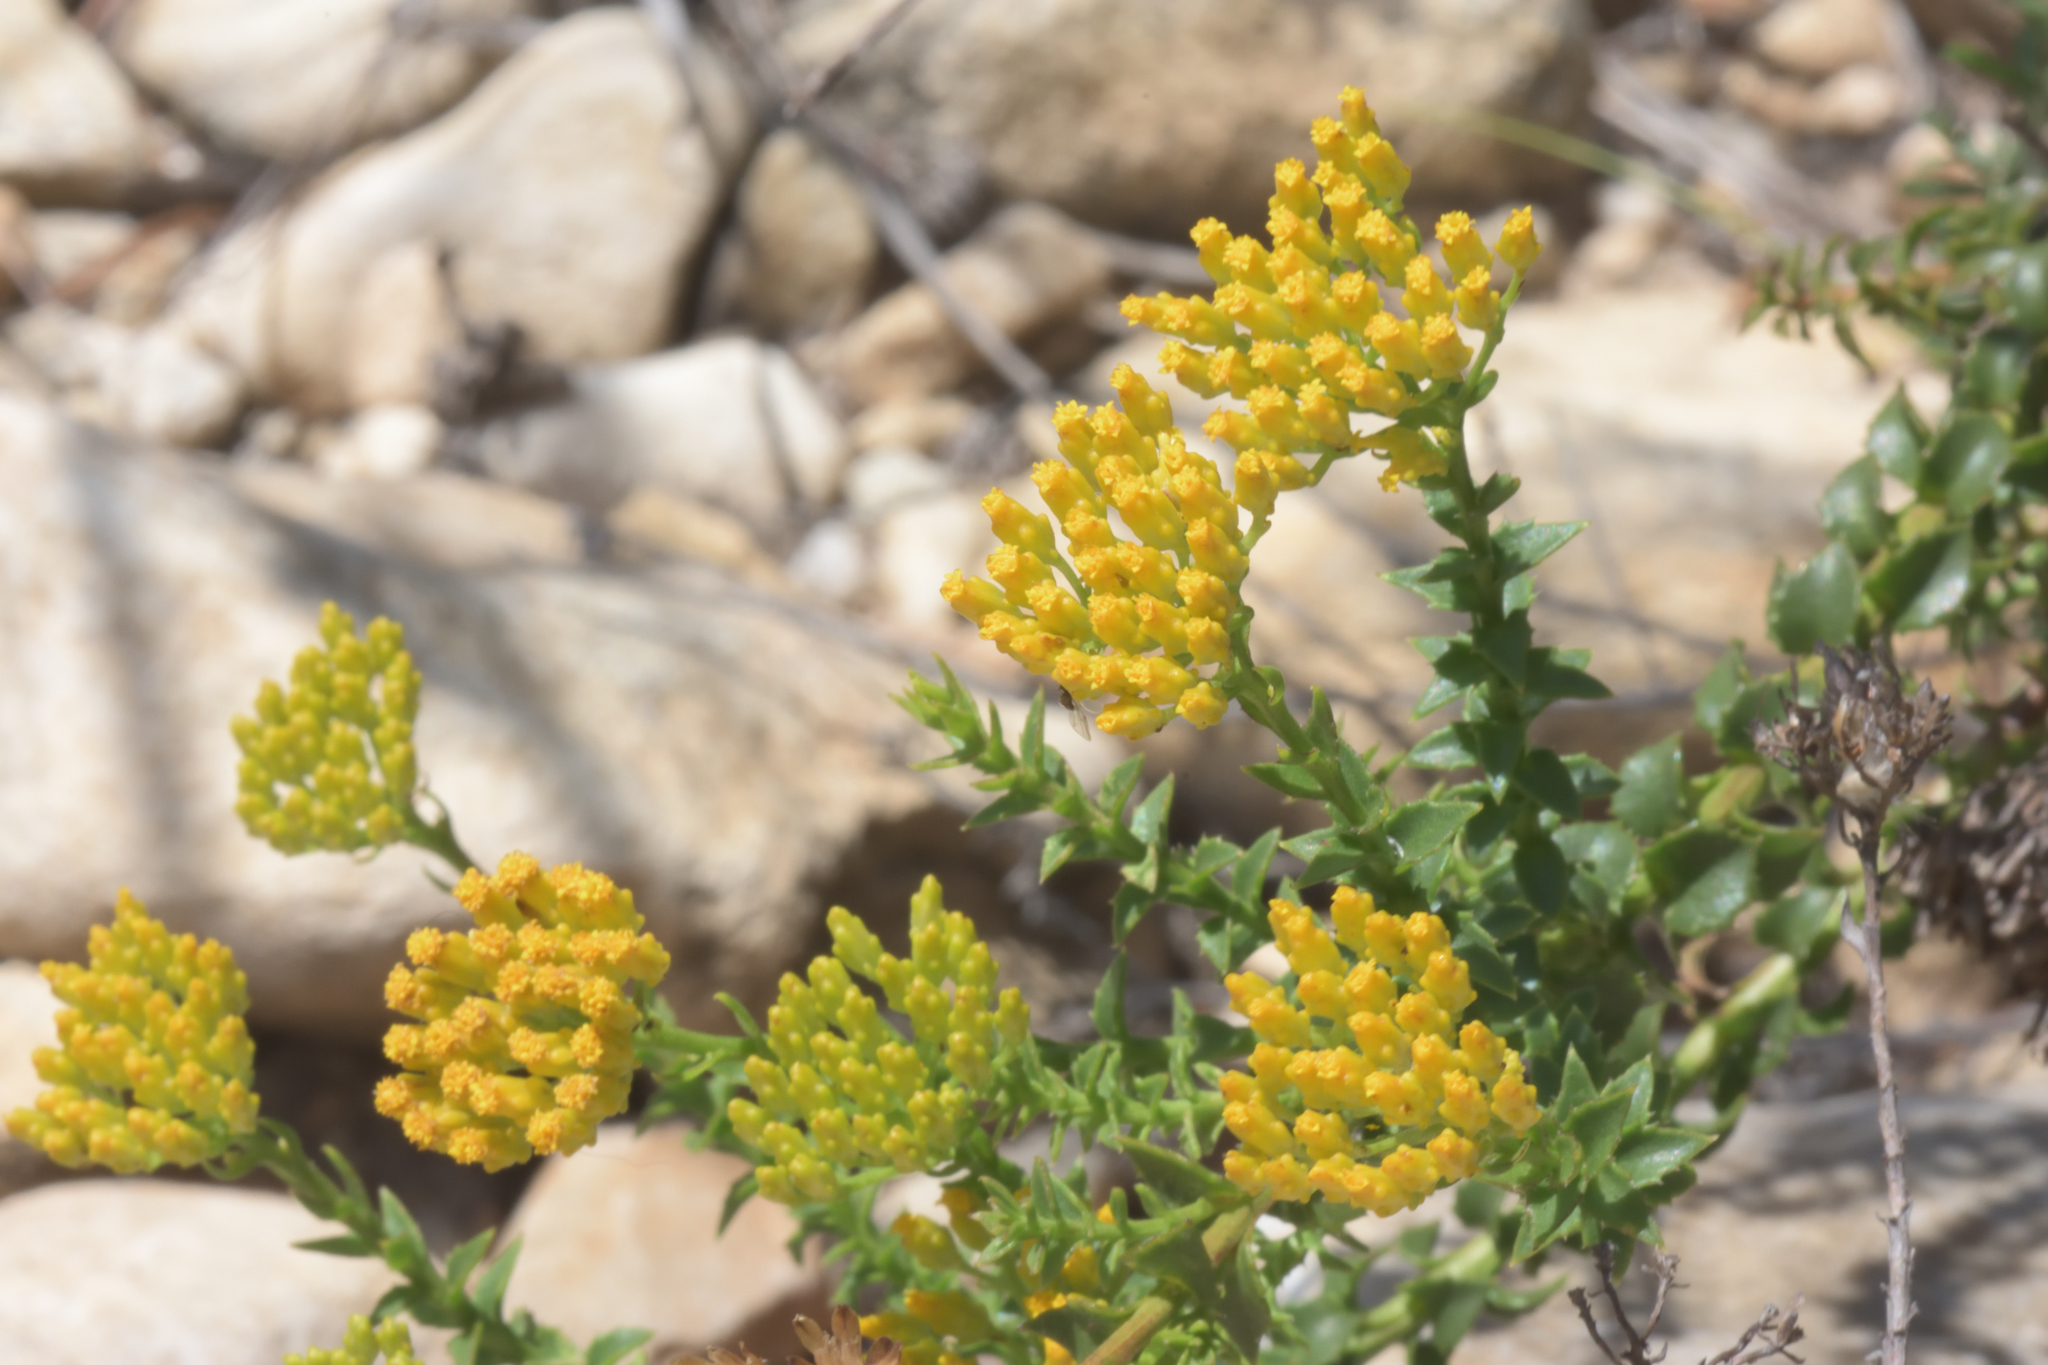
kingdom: Plantae
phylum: Tracheophyta
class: Magnoliopsida
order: Asterales
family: Asteraceae
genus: Athanasia
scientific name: Athanasia dentata
